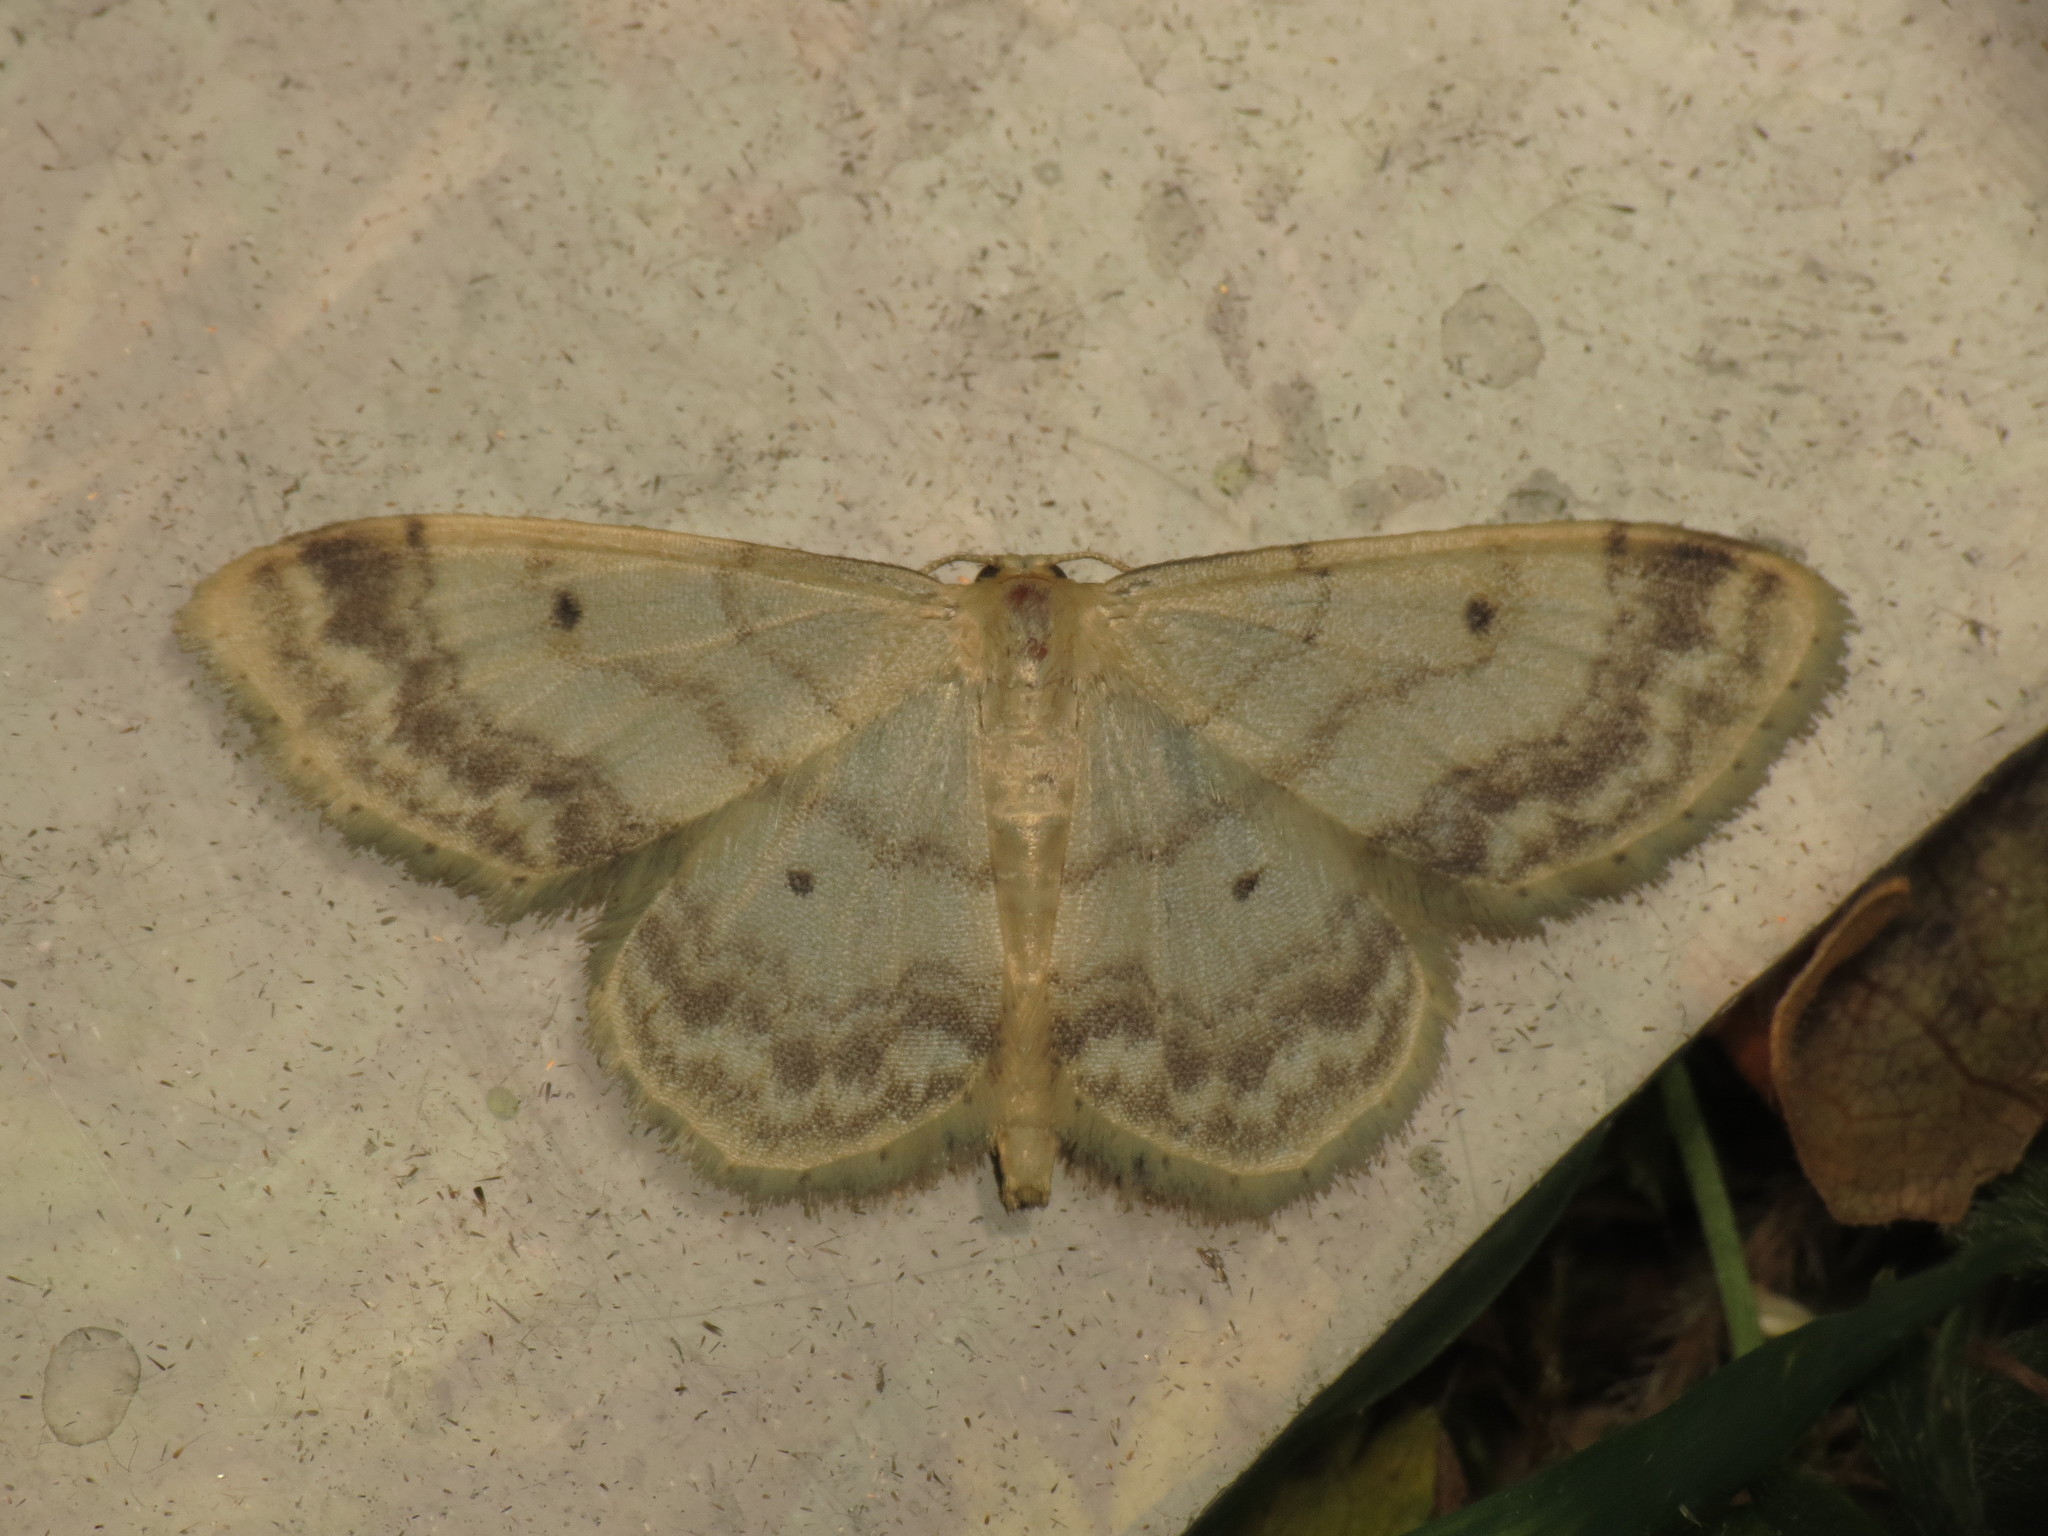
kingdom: Animalia
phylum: Arthropoda
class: Insecta
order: Lepidoptera
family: Geometridae
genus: Idaea
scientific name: Idaea biselata
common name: Small fan-footed wave
